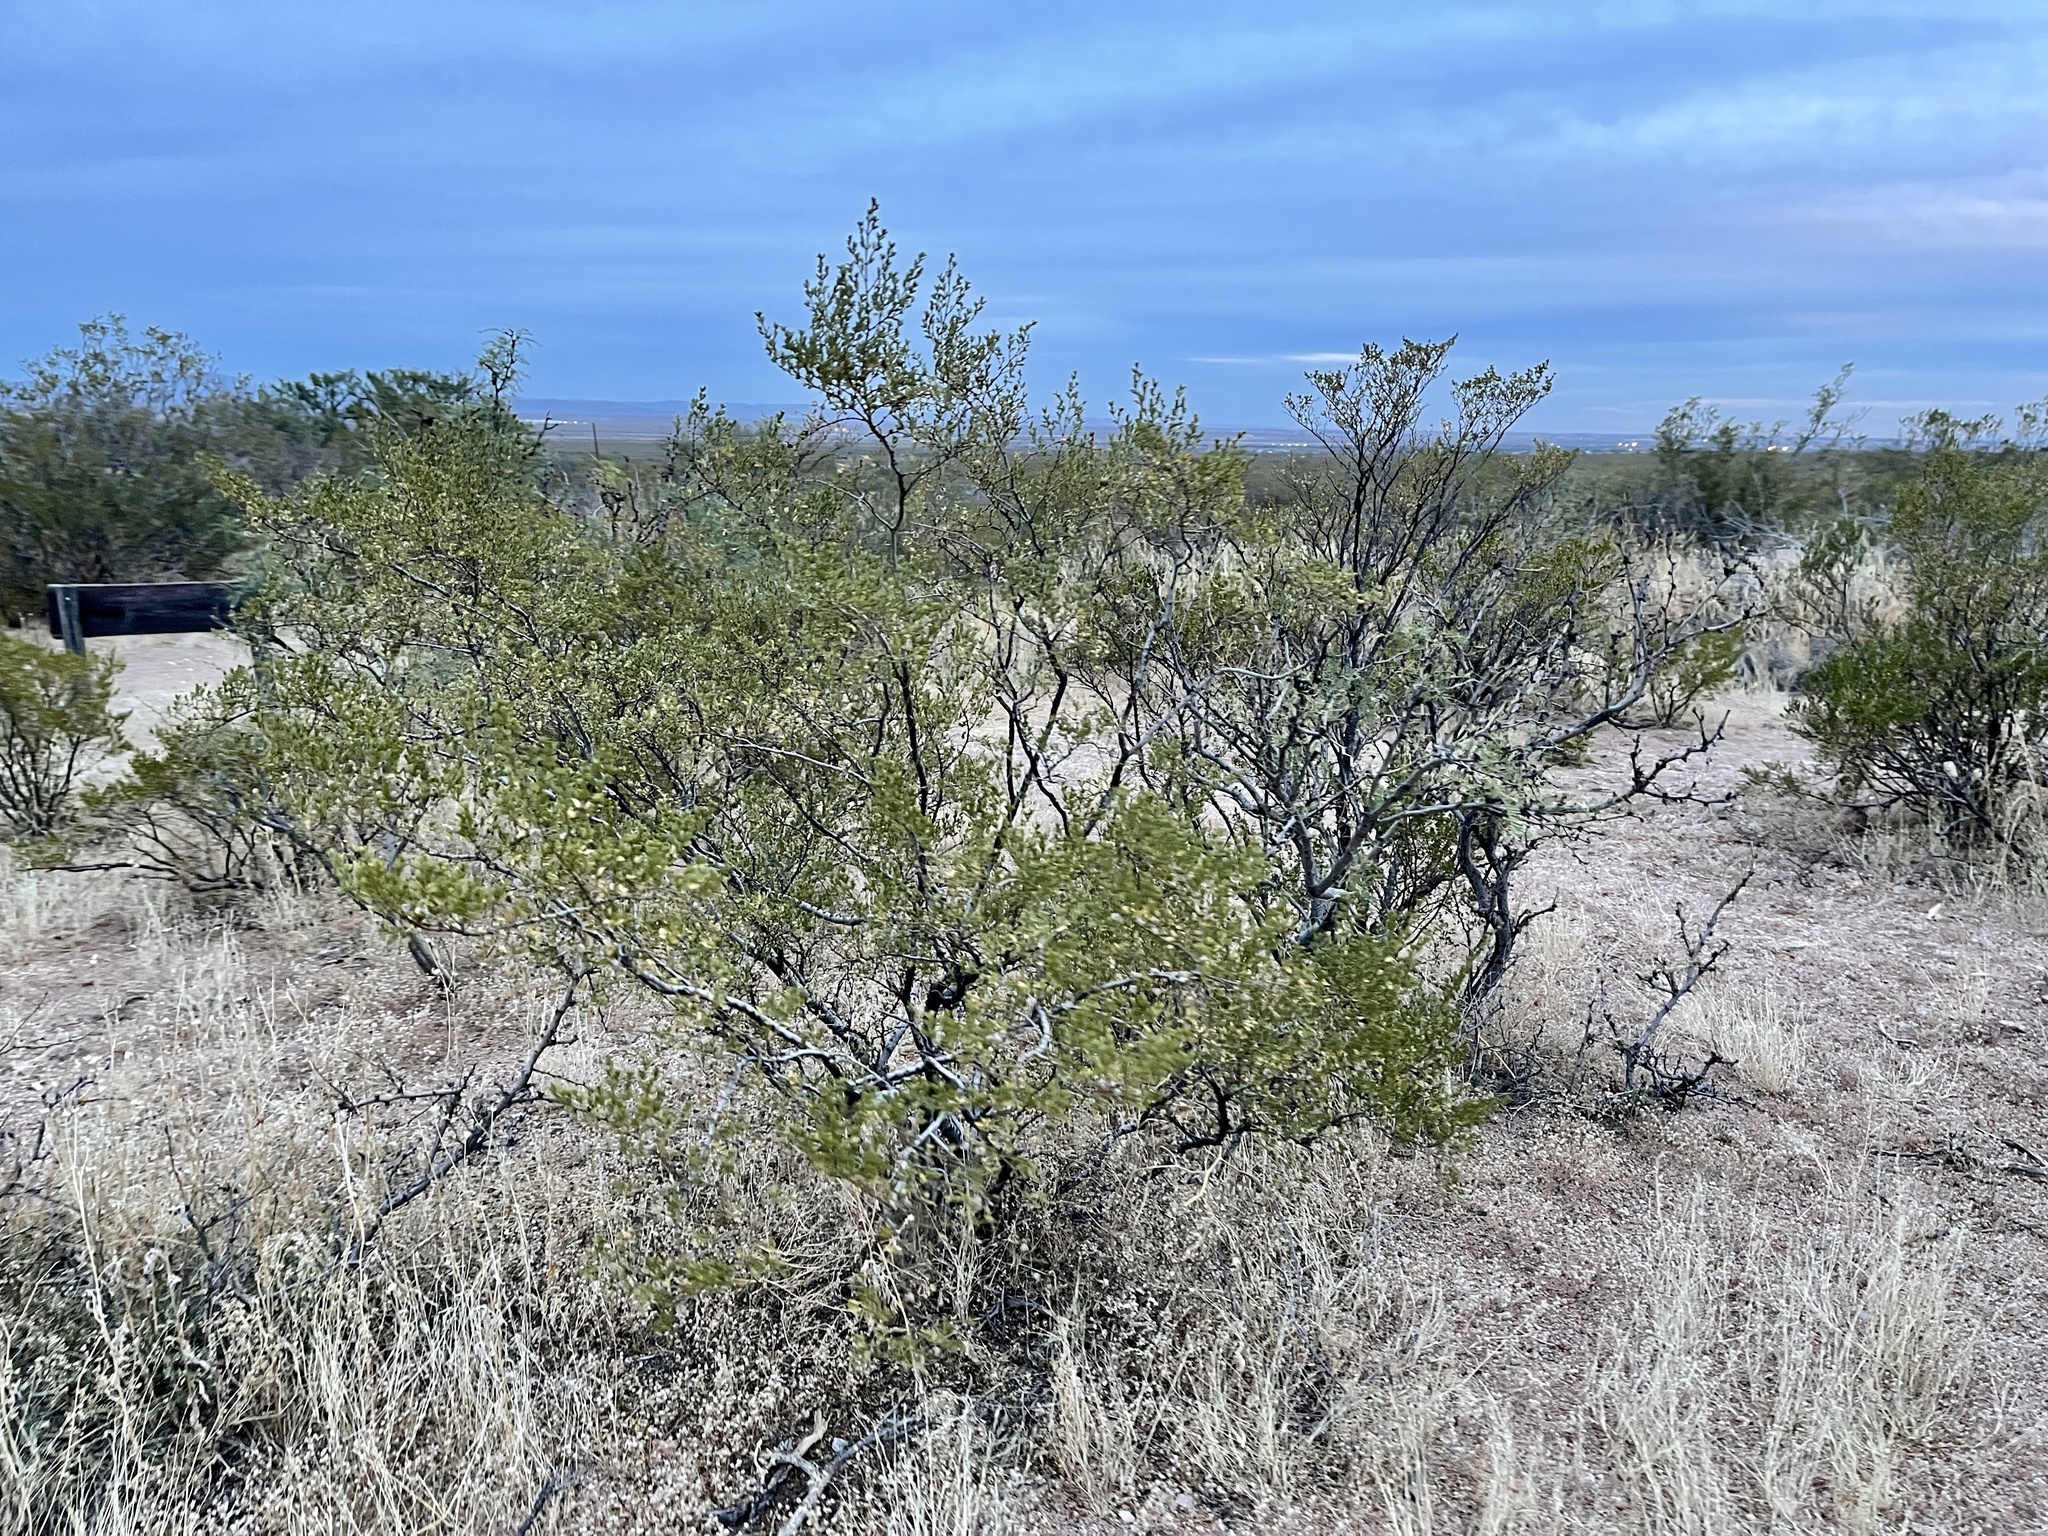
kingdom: Plantae
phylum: Tracheophyta
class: Magnoliopsida
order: Zygophyllales
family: Zygophyllaceae
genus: Larrea
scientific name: Larrea tridentata
